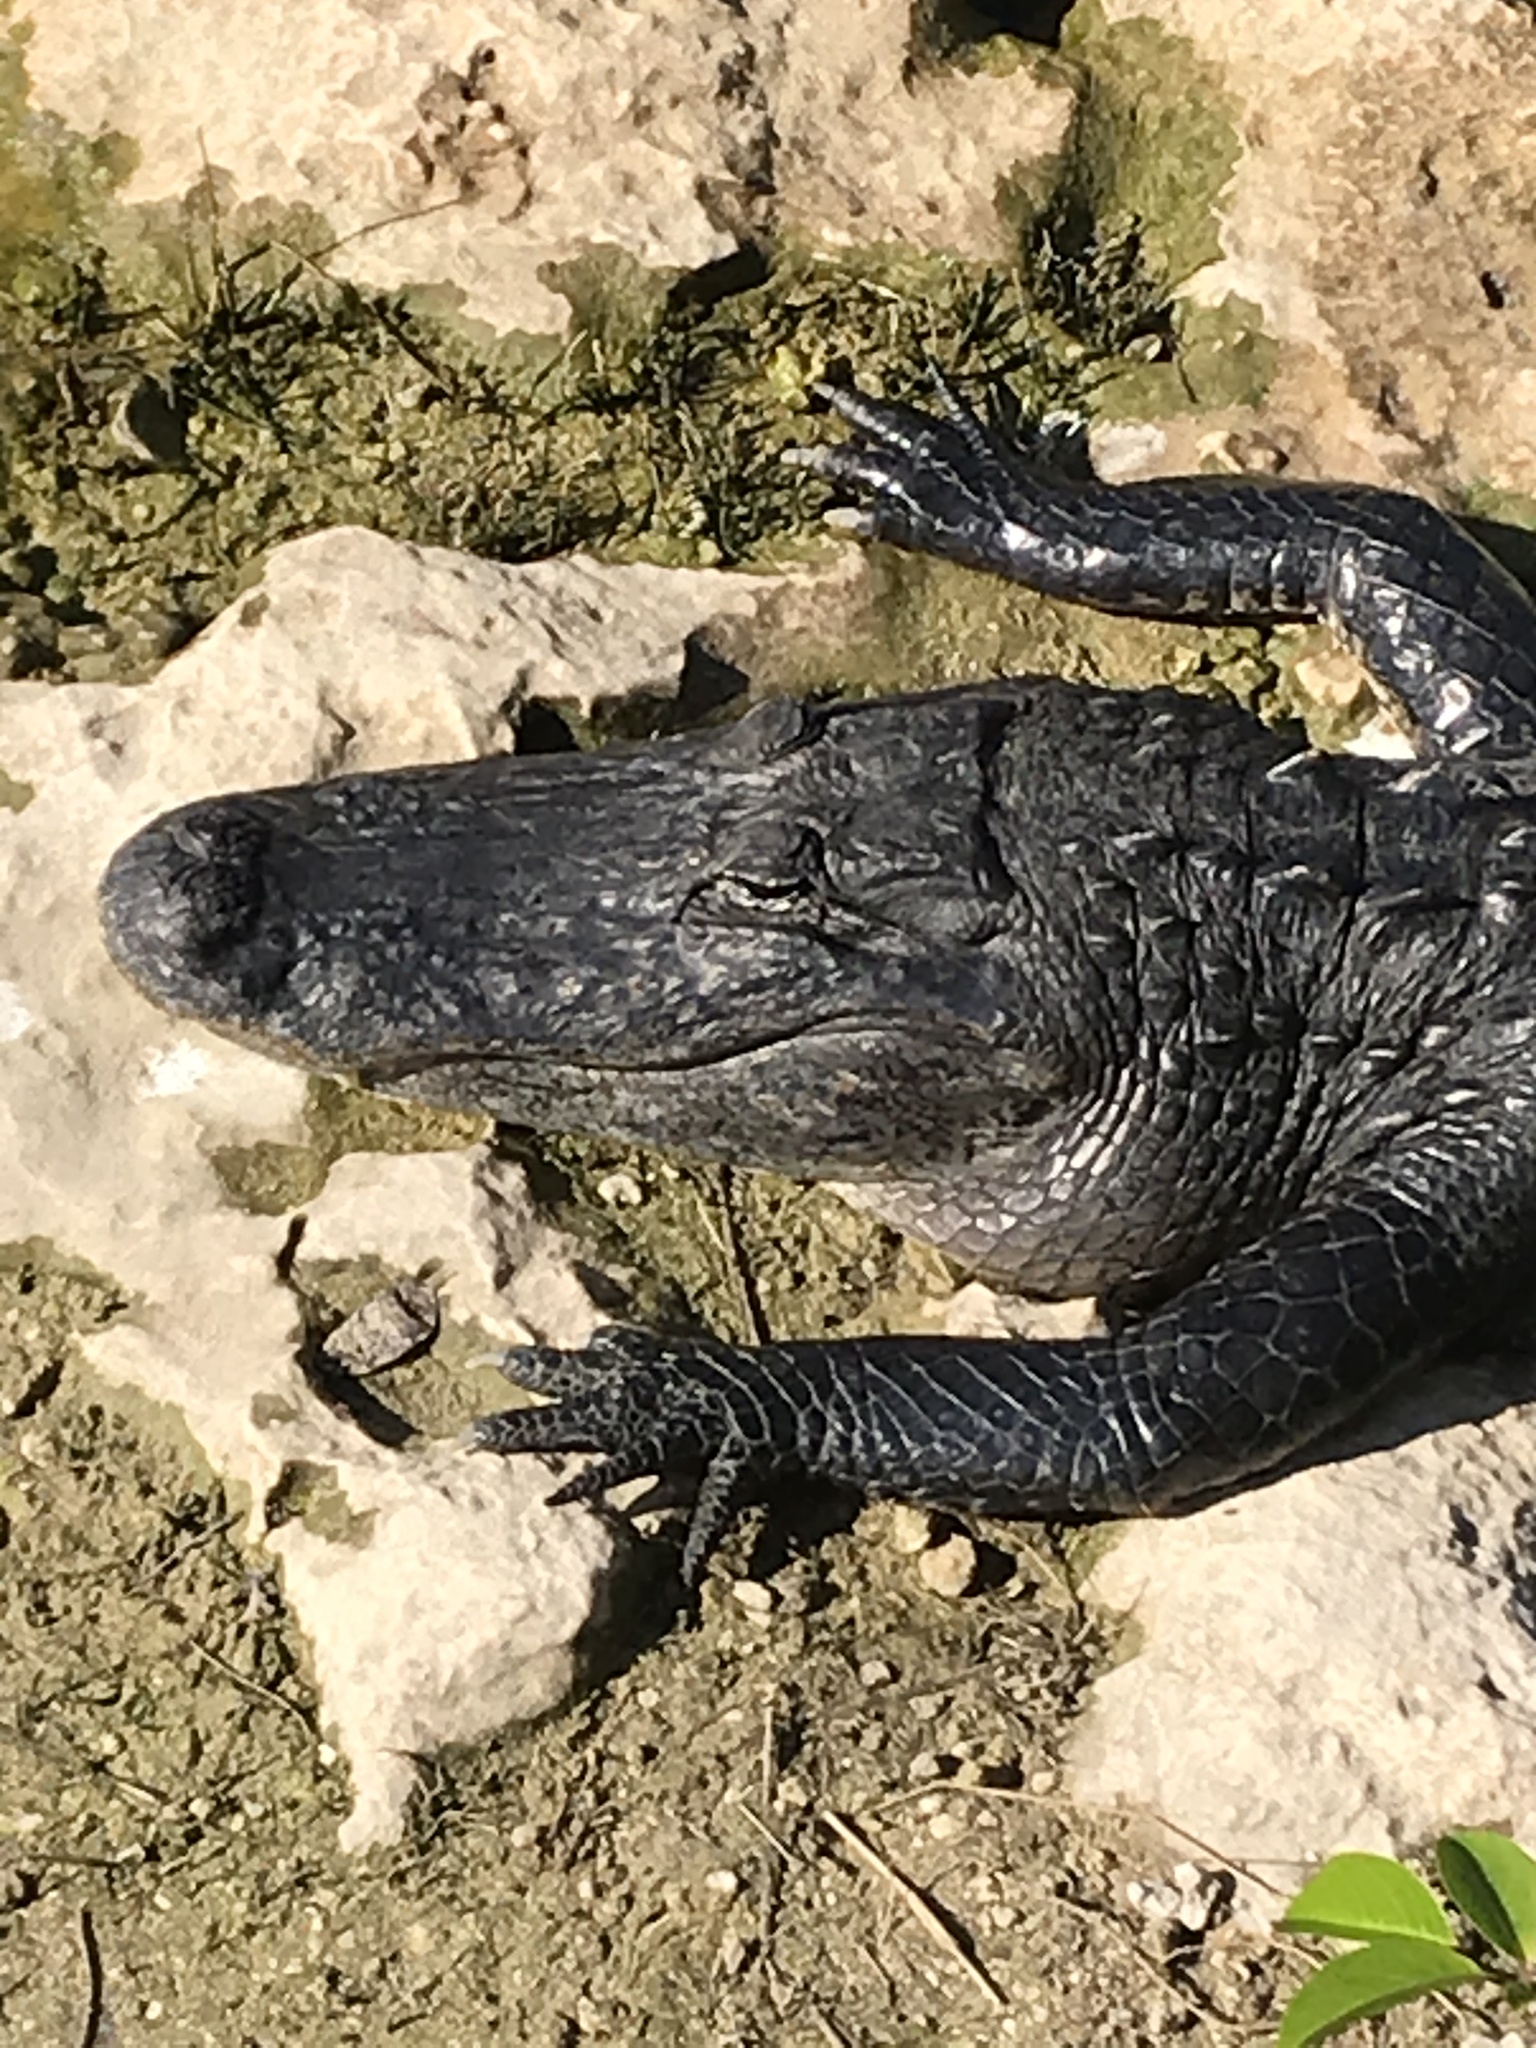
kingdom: Animalia
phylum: Chordata
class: Crocodylia
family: Alligatoridae
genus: Alligator
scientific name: Alligator mississippiensis
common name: American alligator
